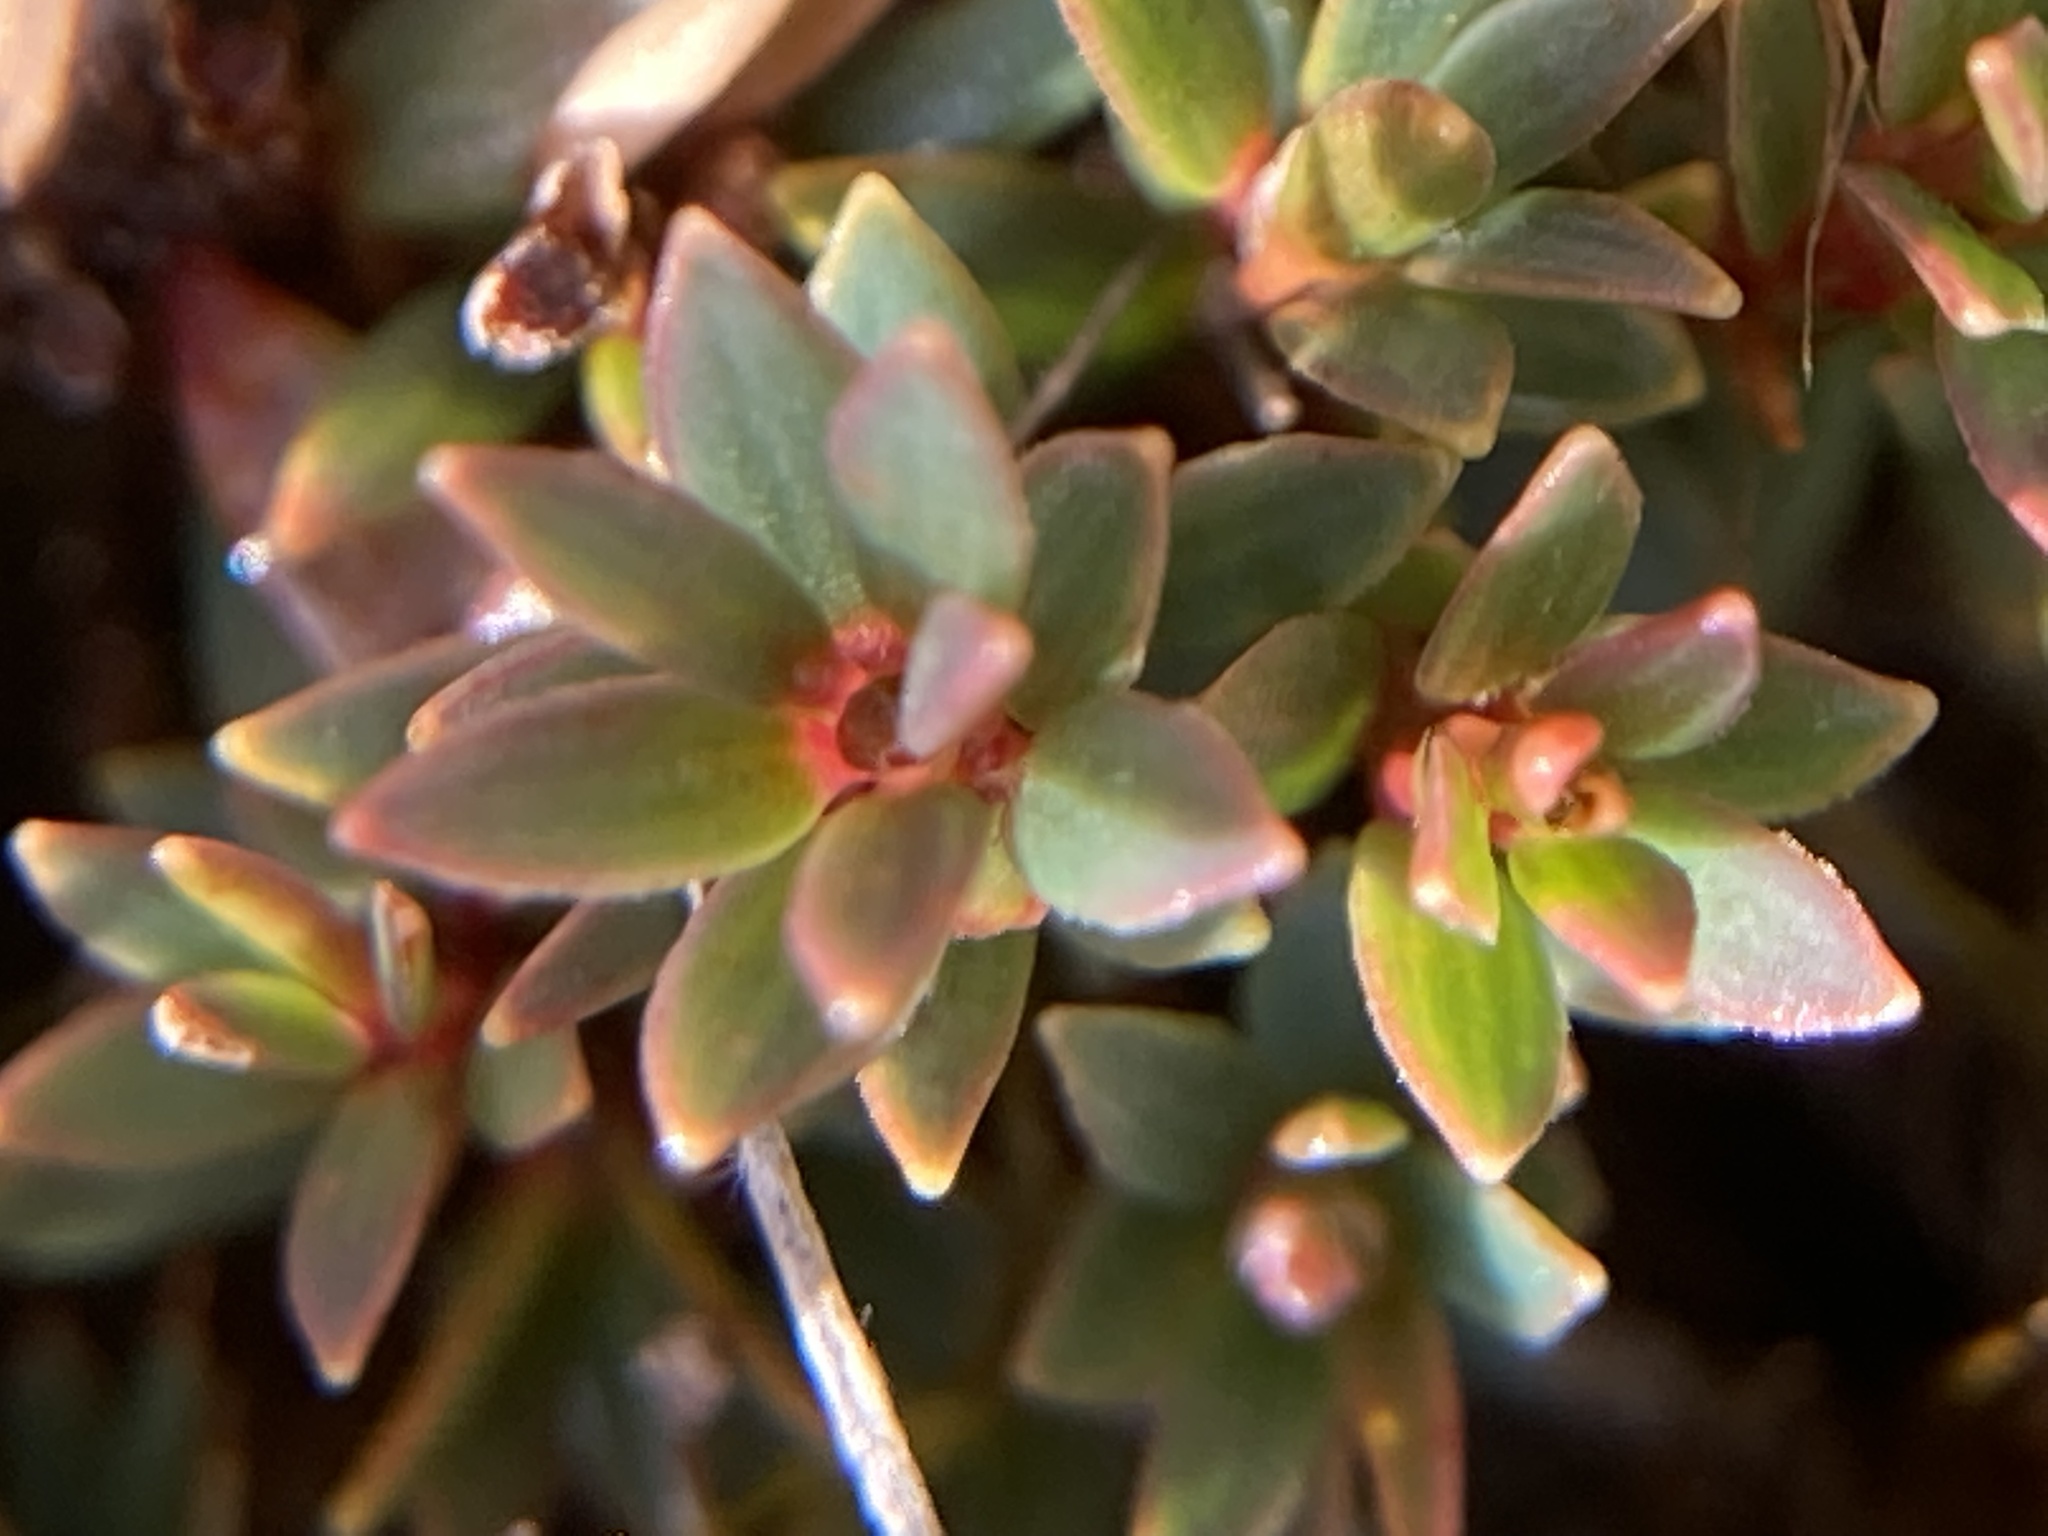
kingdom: Plantae
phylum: Tracheophyta
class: Magnoliopsida
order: Ericales
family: Ericaceae
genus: Pentachondra
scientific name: Pentachondra pumila
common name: Carpet-heath
